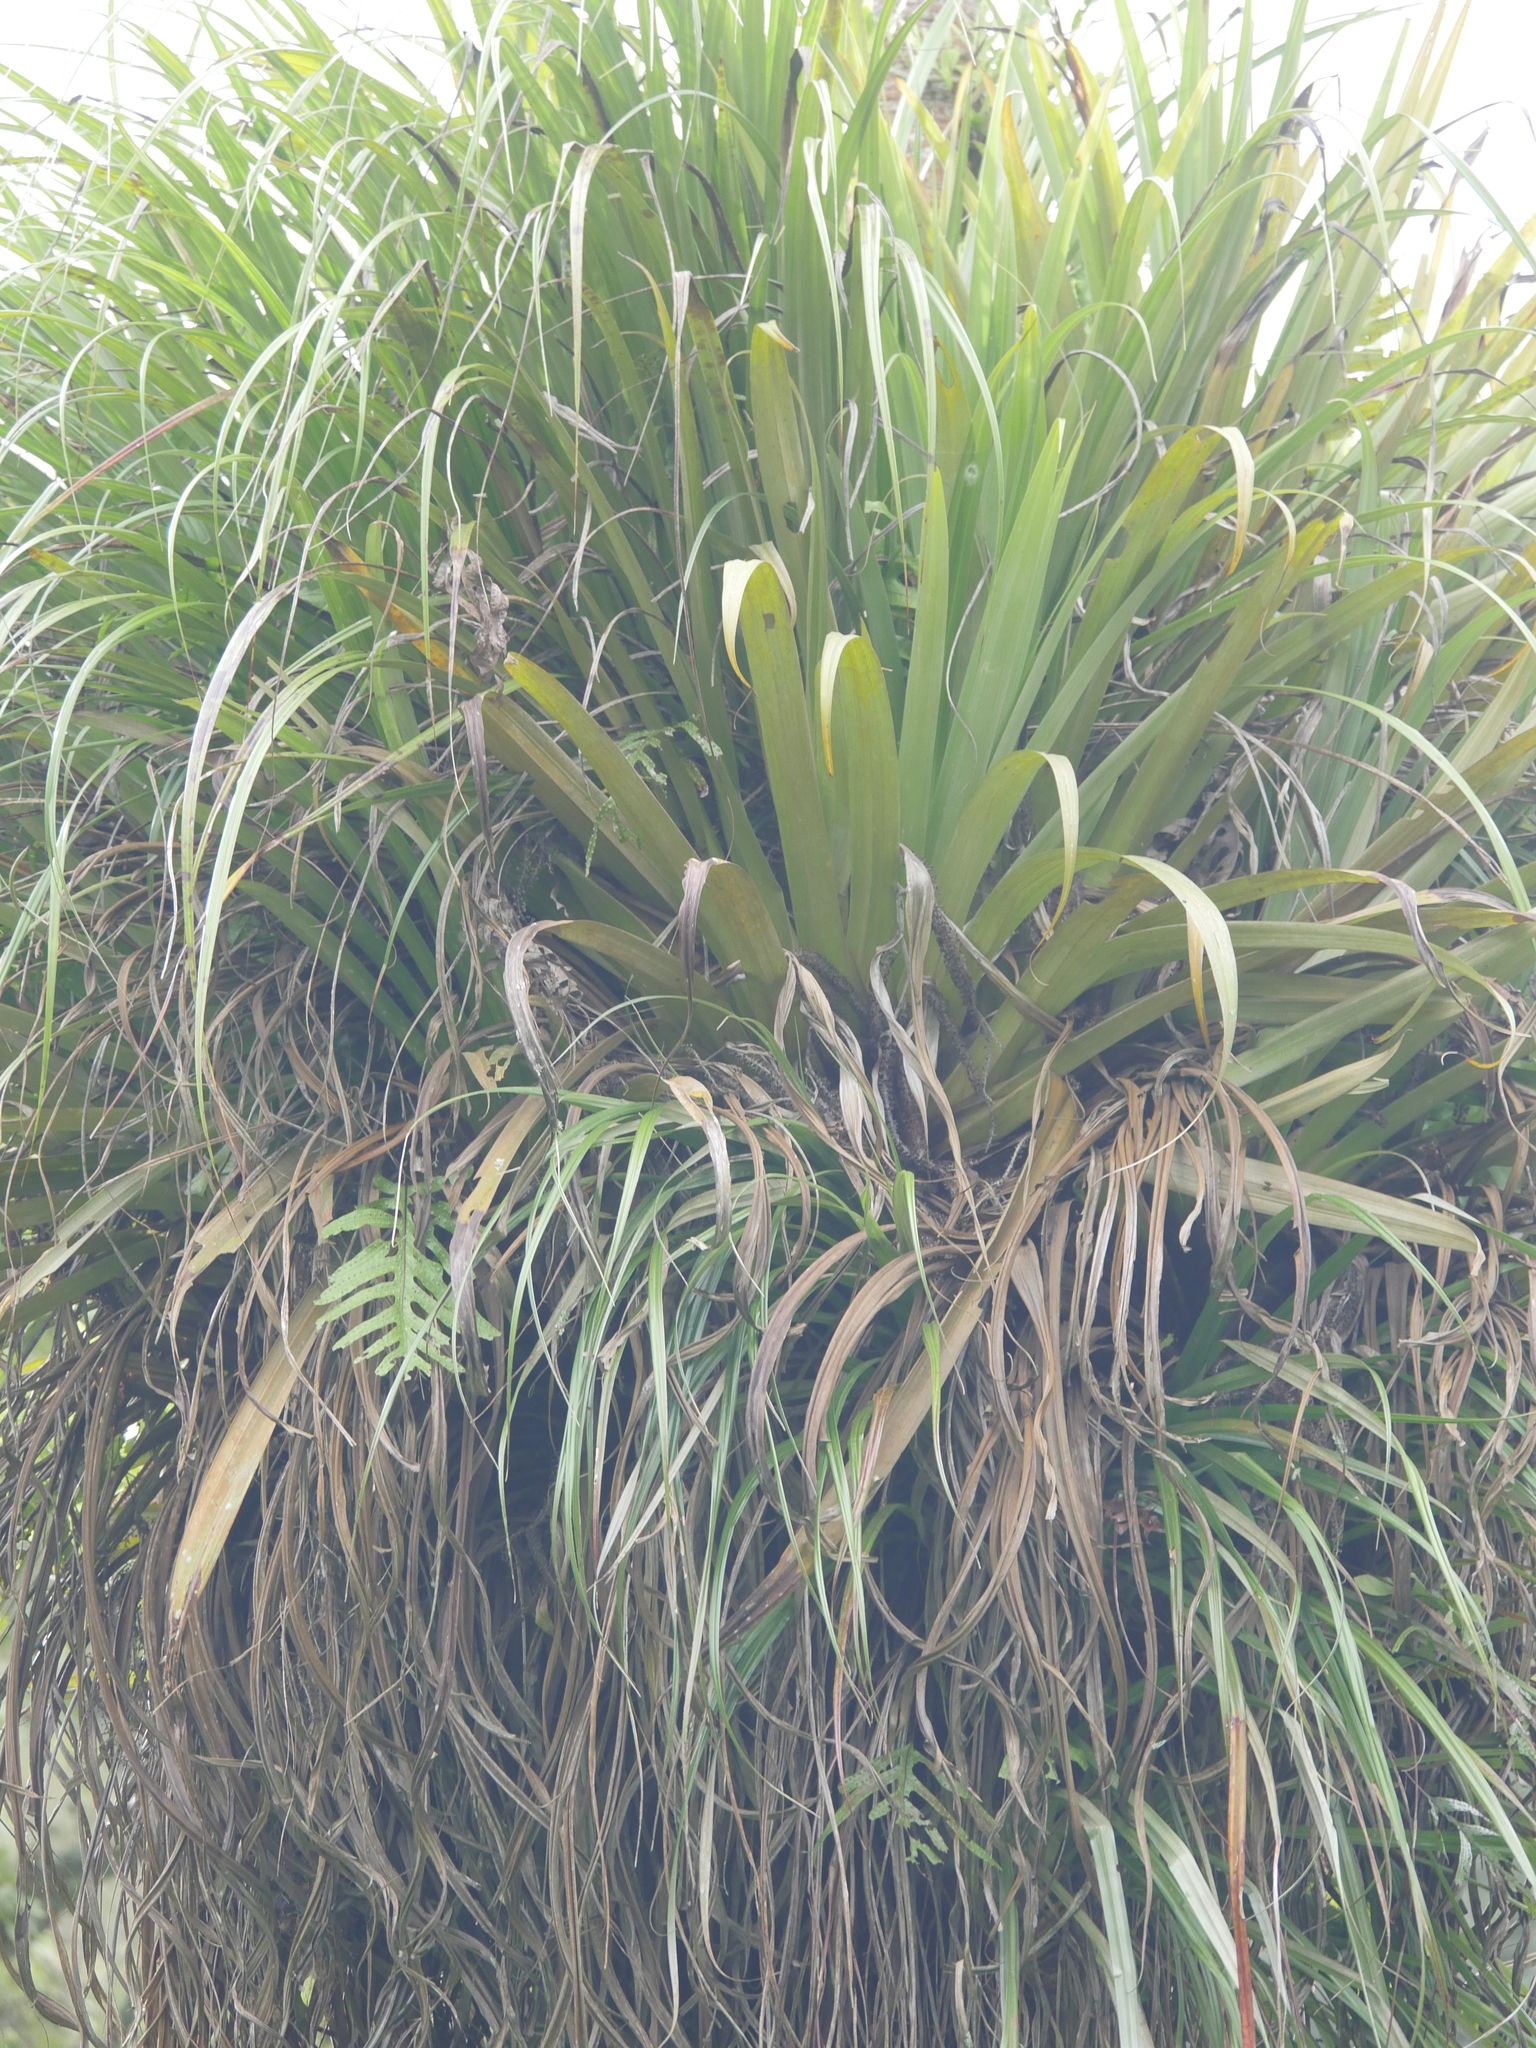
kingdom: Plantae
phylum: Tracheophyta
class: Liliopsida
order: Asparagales
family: Asteliaceae
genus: Astelia
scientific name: Astelia hastata
